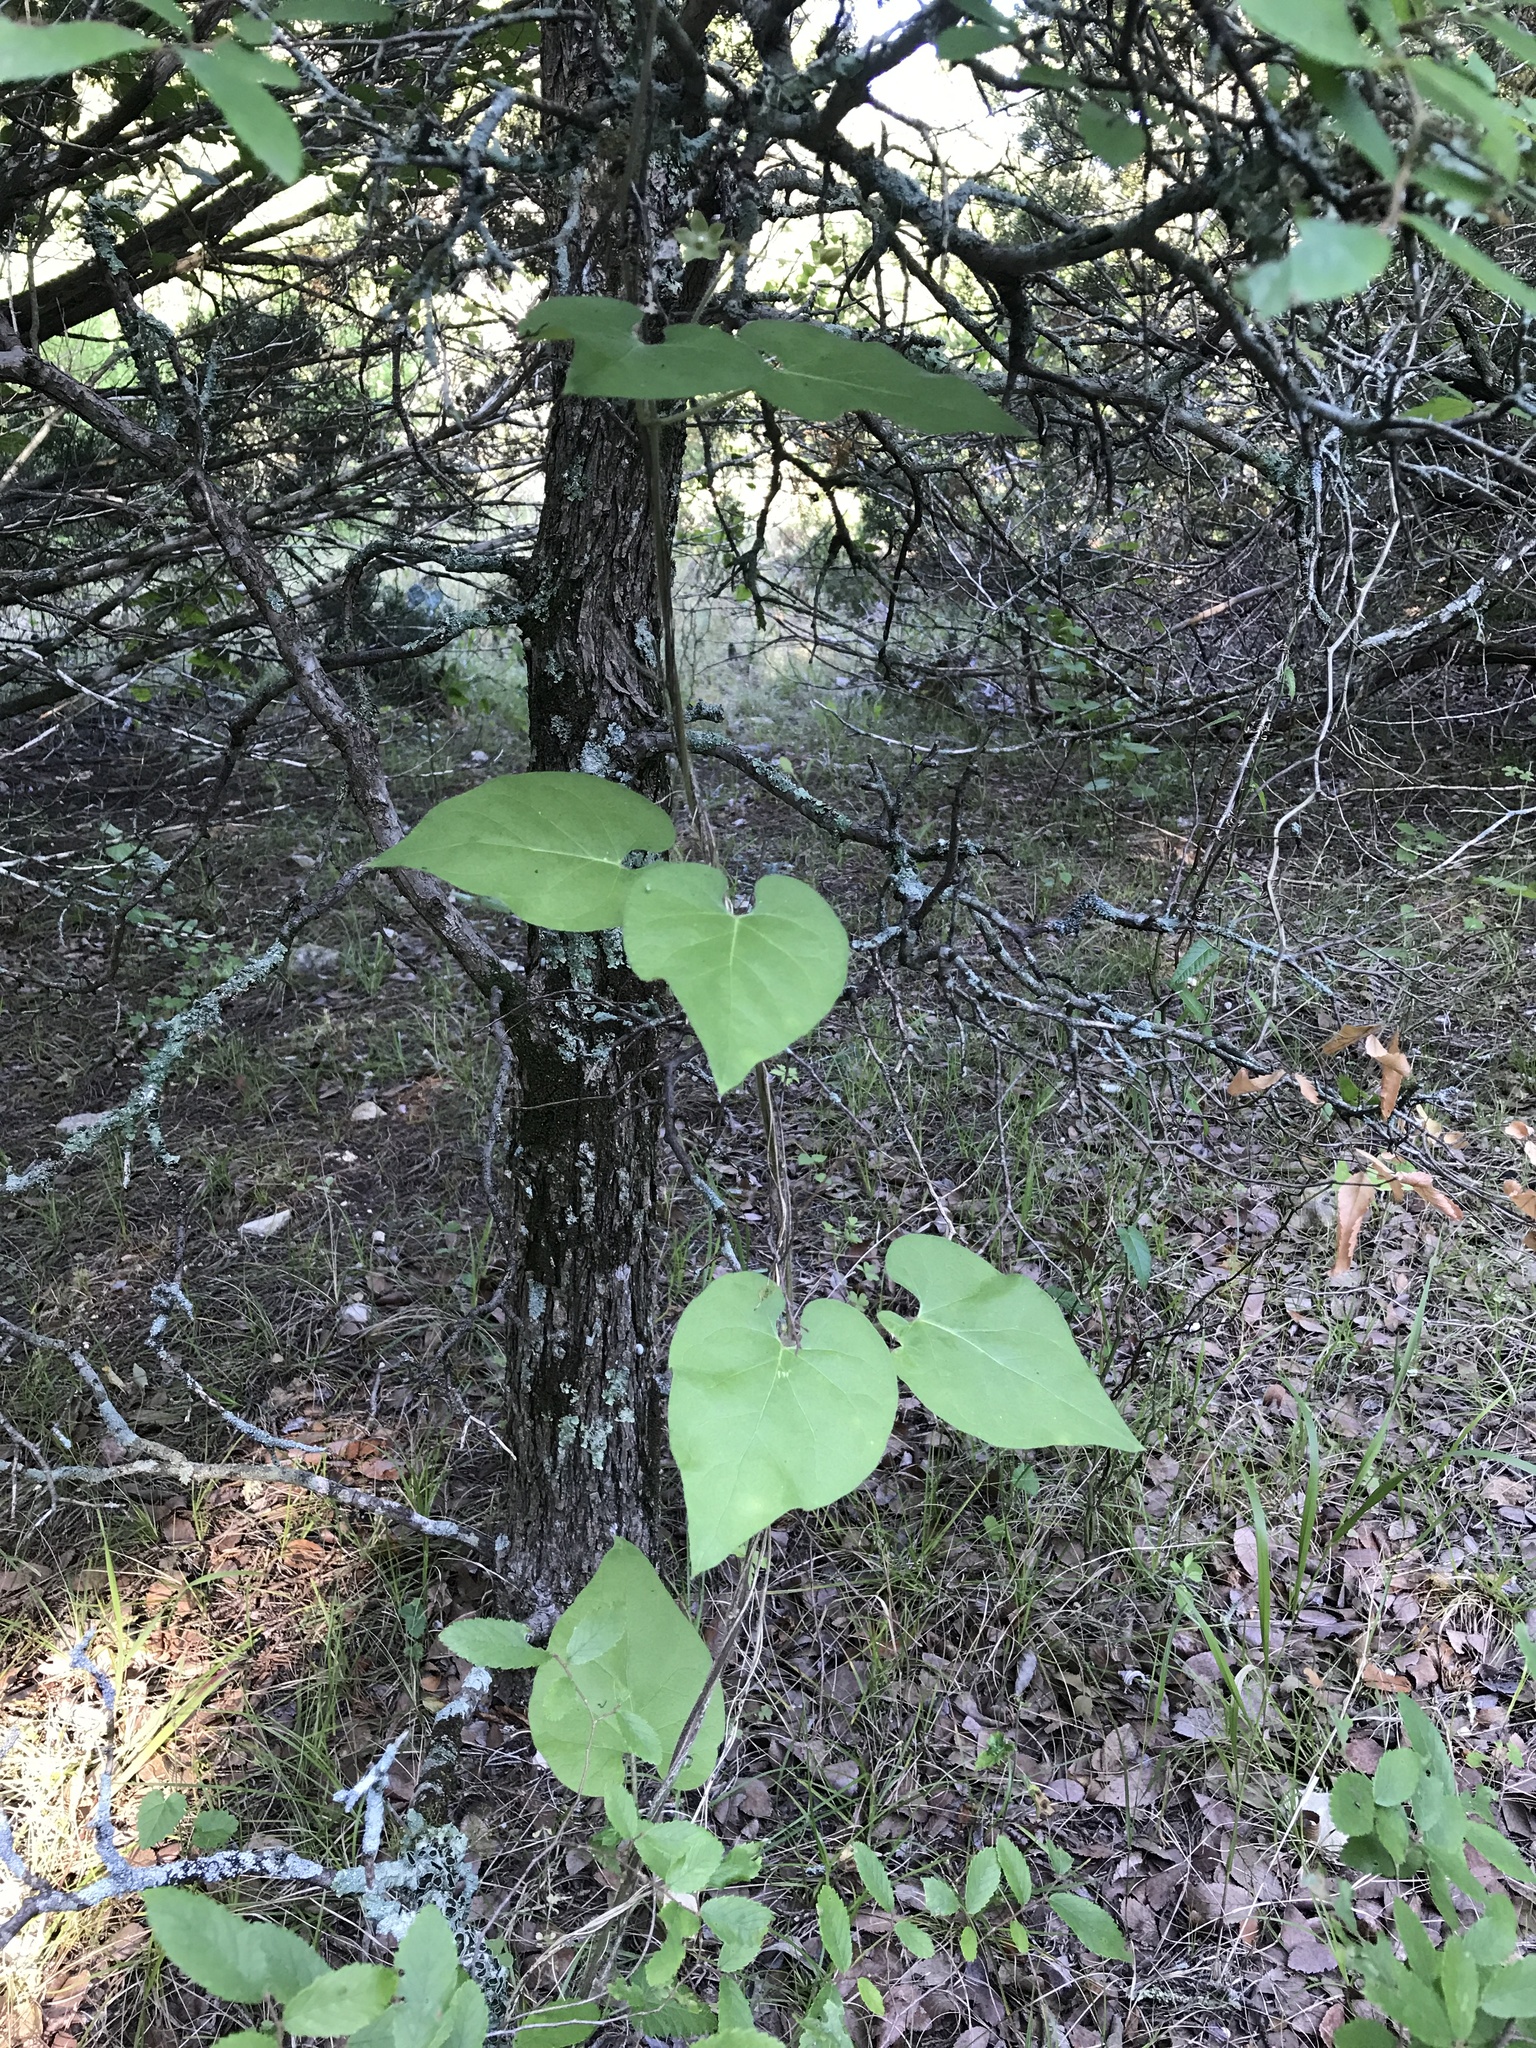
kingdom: Plantae
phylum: Tracheophyta
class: Magnoliopsida
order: Gentianales
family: Apocynaceae
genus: Dictyanthus
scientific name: Dictyanthus reticulatus
